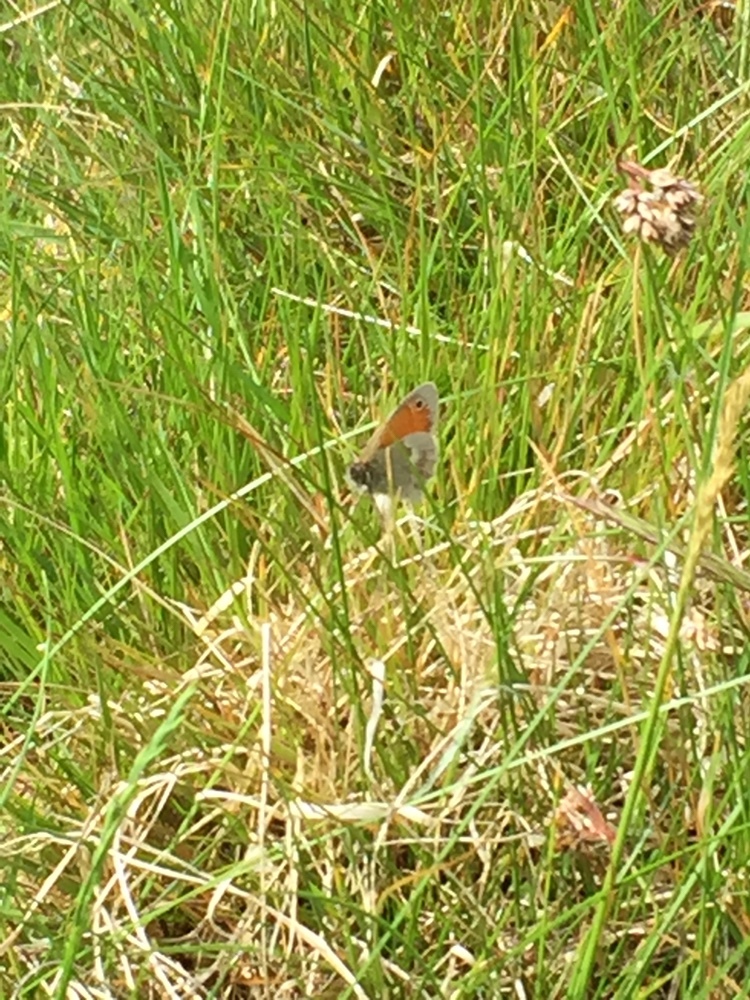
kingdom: Animalia
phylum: Arthropoda
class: Insecta
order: Lepidoptera
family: Nymphalidae
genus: Coenonympha
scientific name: Coenonympha pamphilus
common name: Small heath
